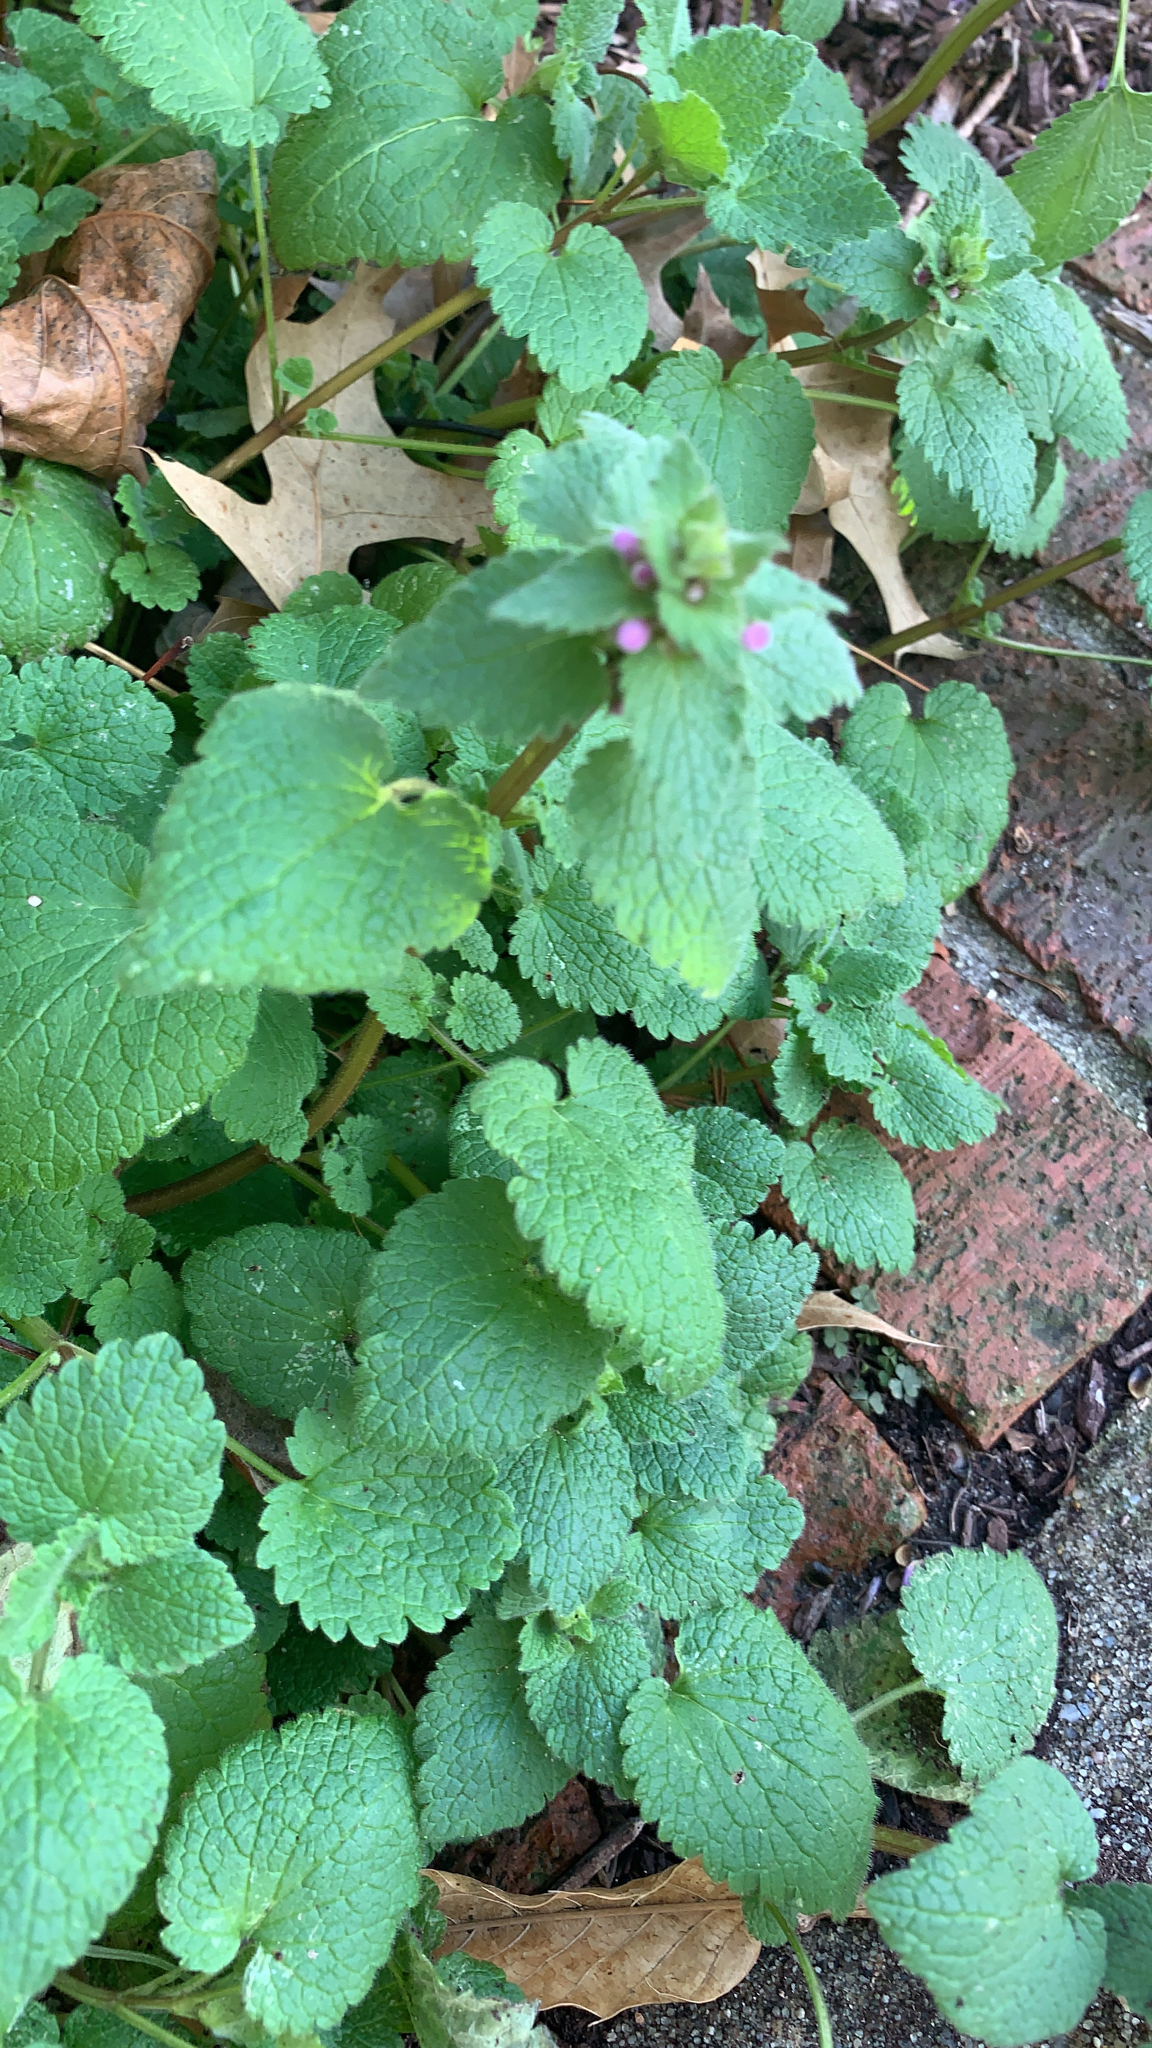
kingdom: Plantae
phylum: Tracheophyta
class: Magnoliopsida
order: Lamiales
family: Lamiaceae
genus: Lamium
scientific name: Lamium purpureum
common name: Red dead-nettle
